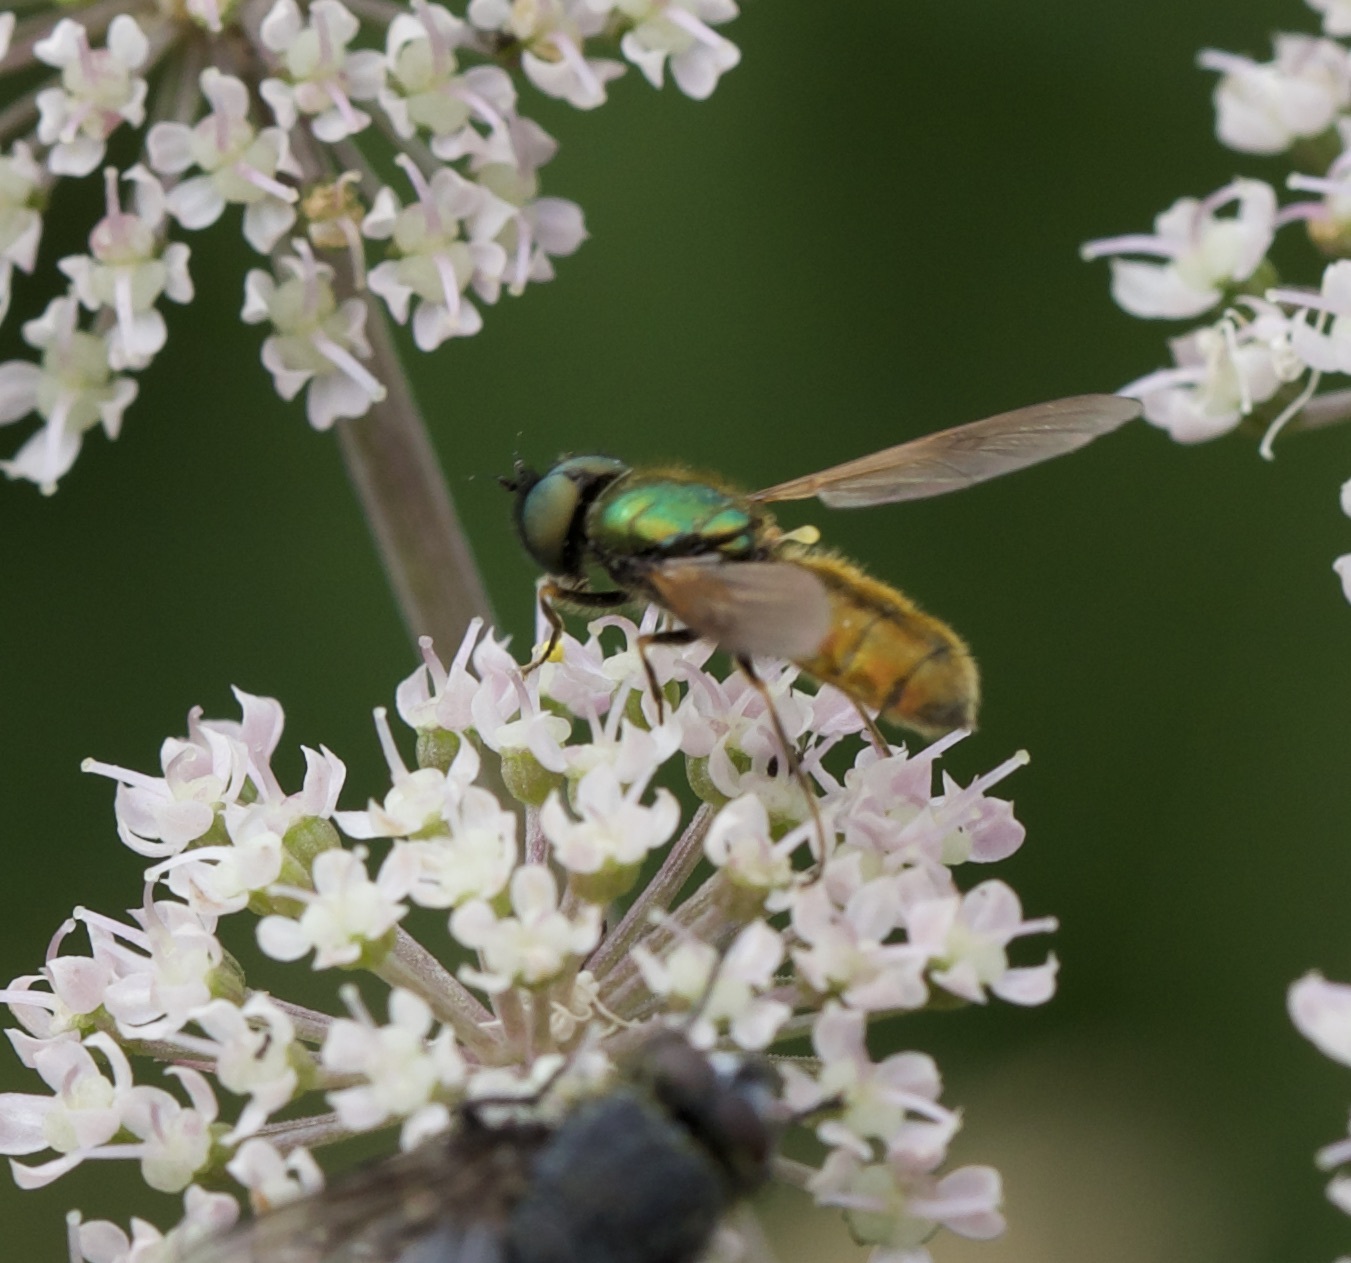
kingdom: Animalia
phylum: Arthropoda
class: Insecta
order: Diptera
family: Stratiomyidae
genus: Chloromyia
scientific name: Chloromyia formosa
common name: Soldier fly
